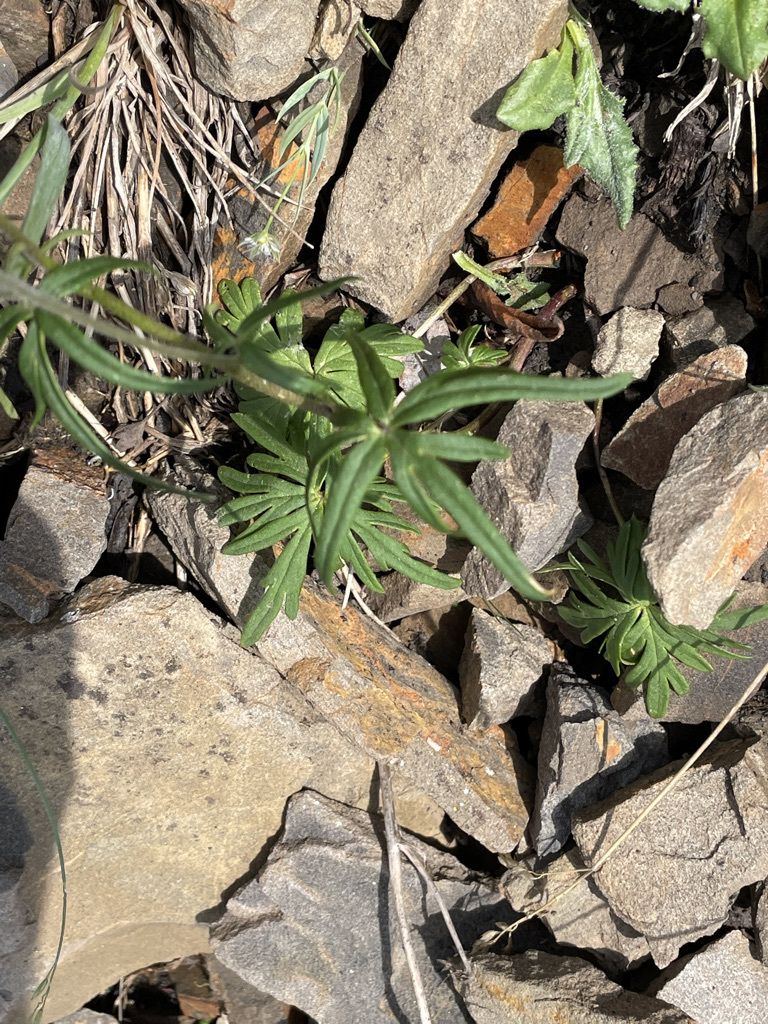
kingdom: Plantae
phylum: Tracheophyta
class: Magnoliopsida
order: Ranunculales
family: Ranunculaceae
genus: Aconitum
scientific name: Aconitum delphiniifolium
